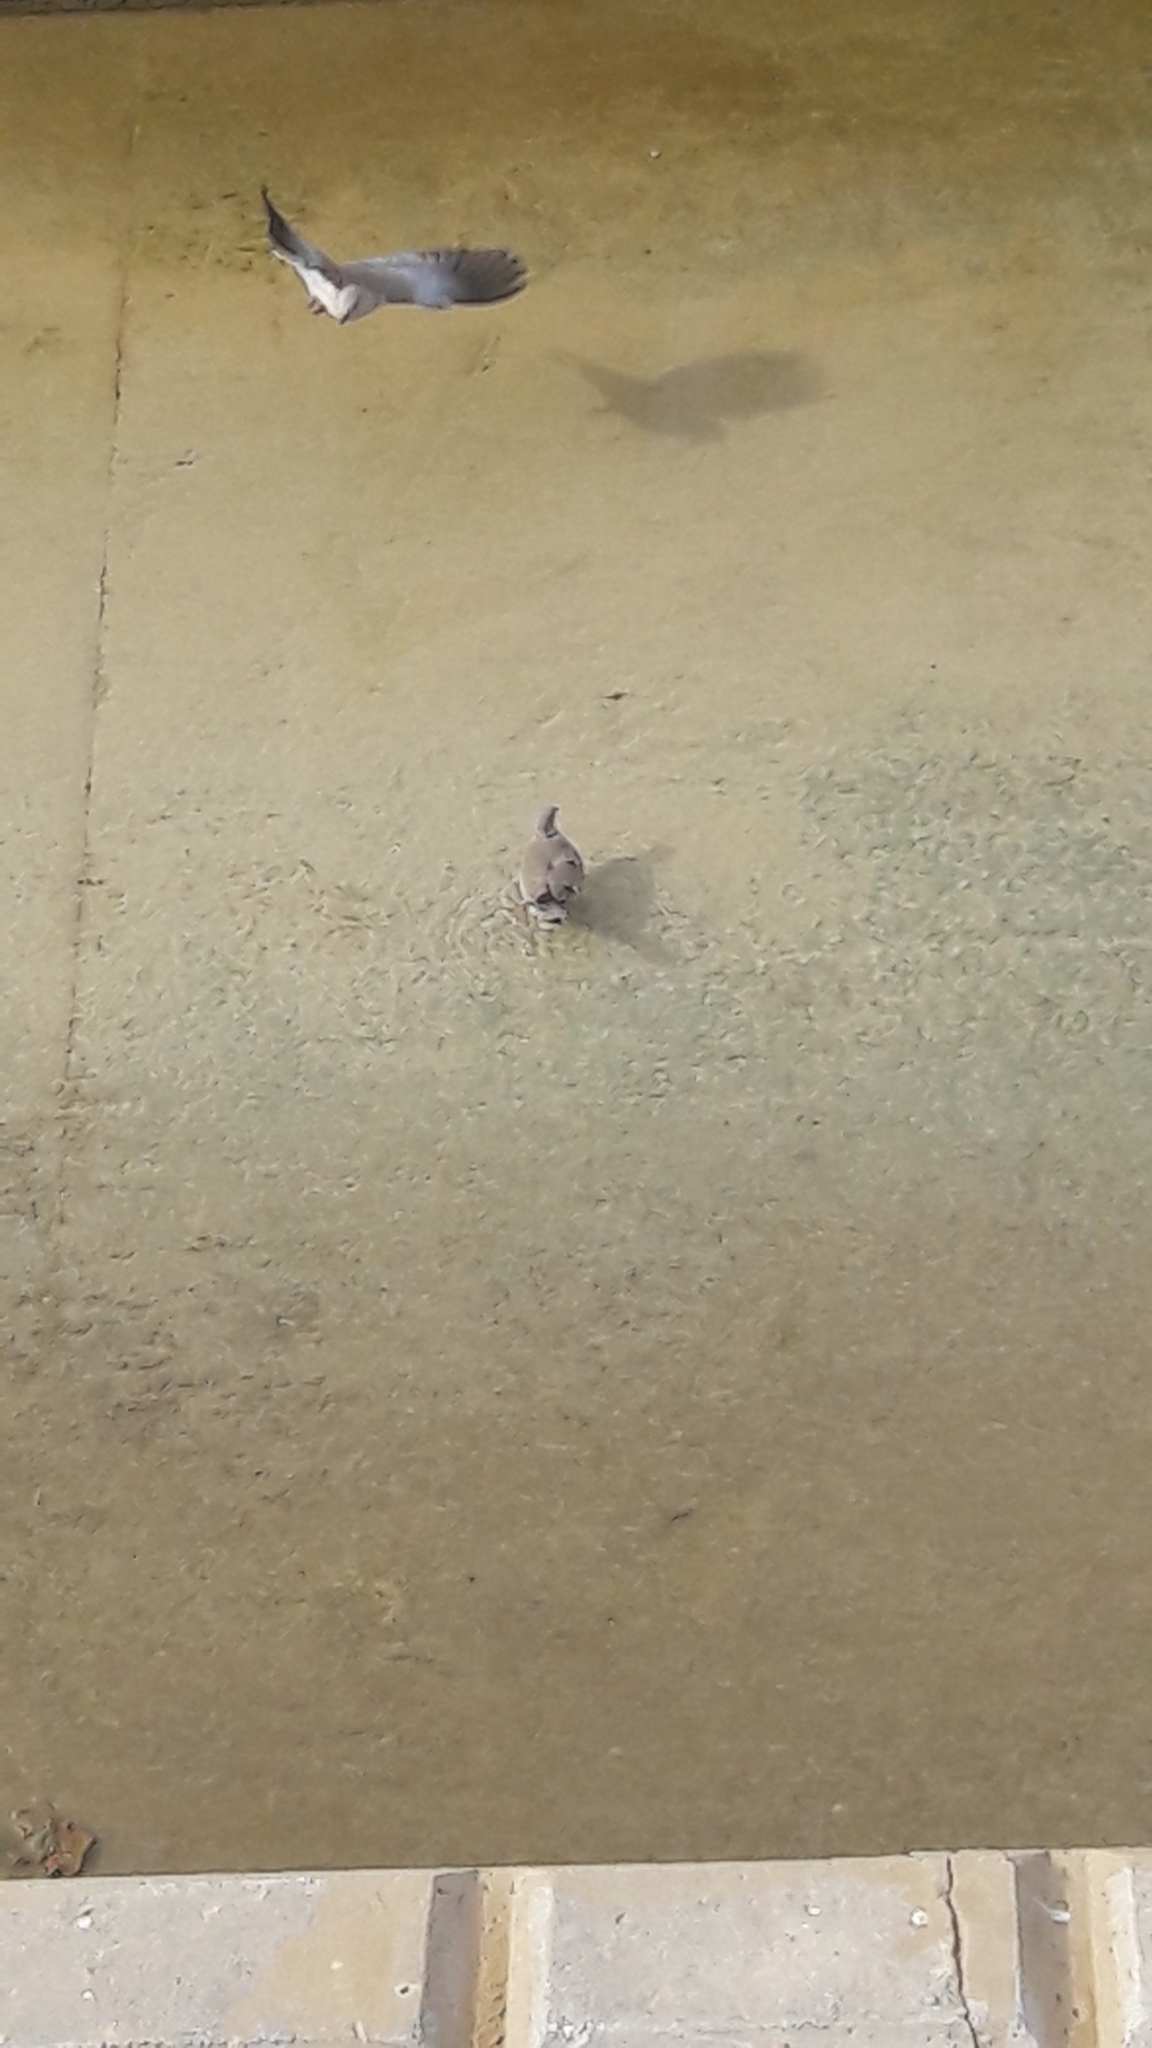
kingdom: Animalia
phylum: Chordata
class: Aves
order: Columbiformes
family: Columbidae
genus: Streptopelia
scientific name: Streptopelia decaocto
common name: Eurasian collared dove
